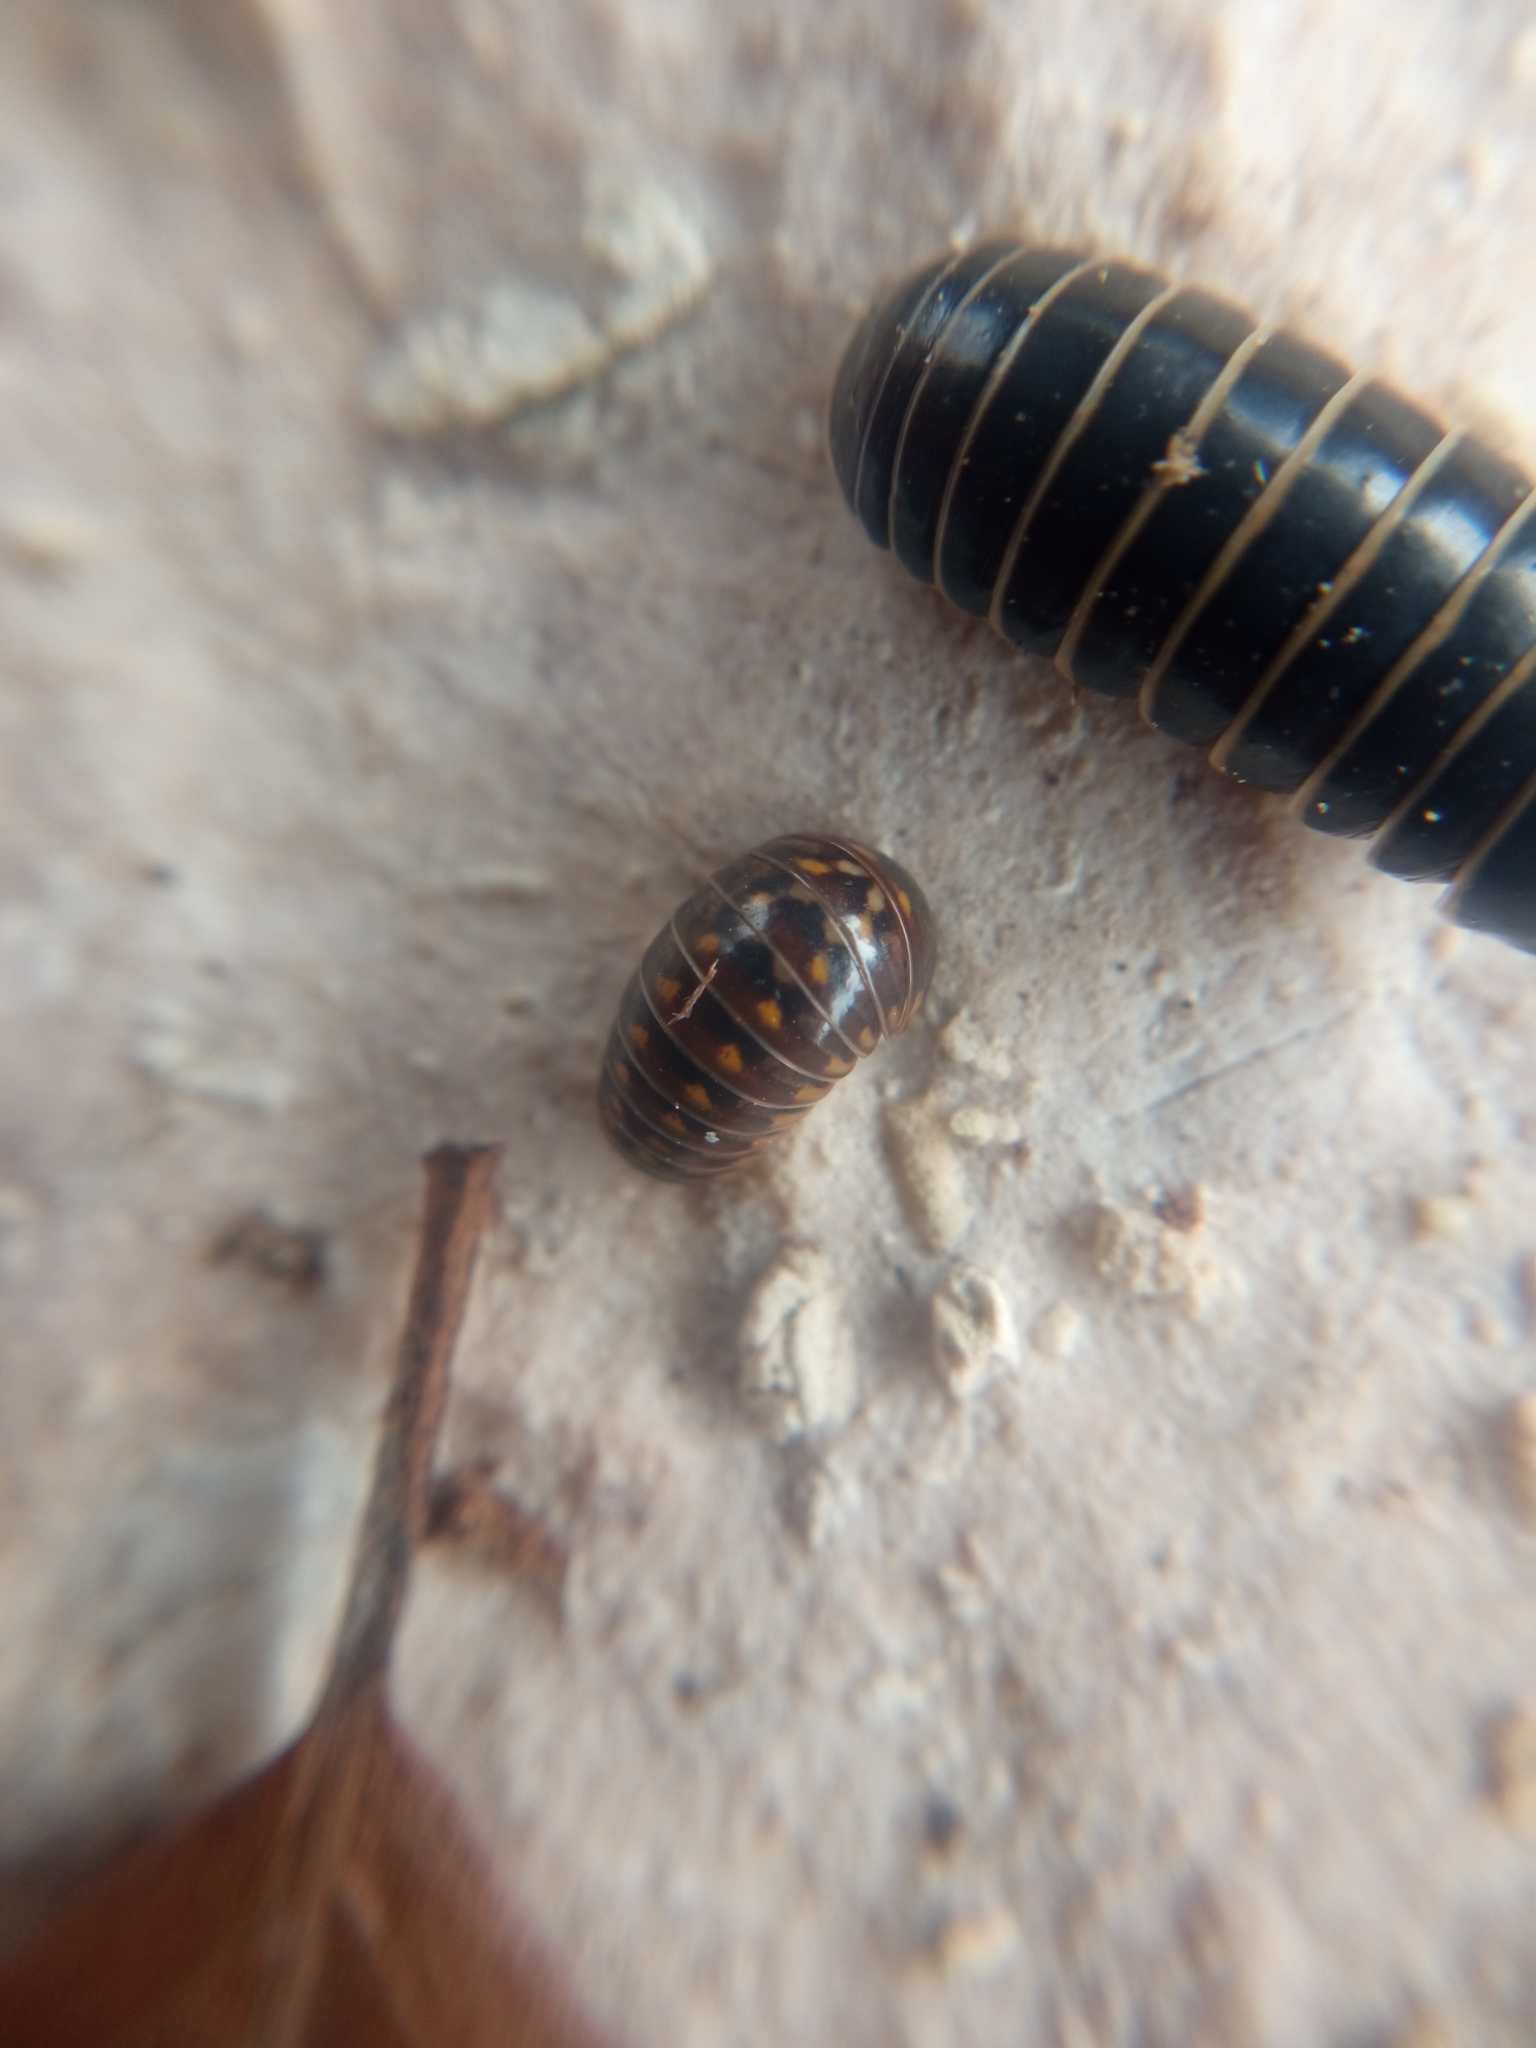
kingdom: Animalia
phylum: Arthropoda
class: Diplopoda
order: Glomerida
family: Glomeridae
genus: Glomeris
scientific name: Glomeris valesiaca
